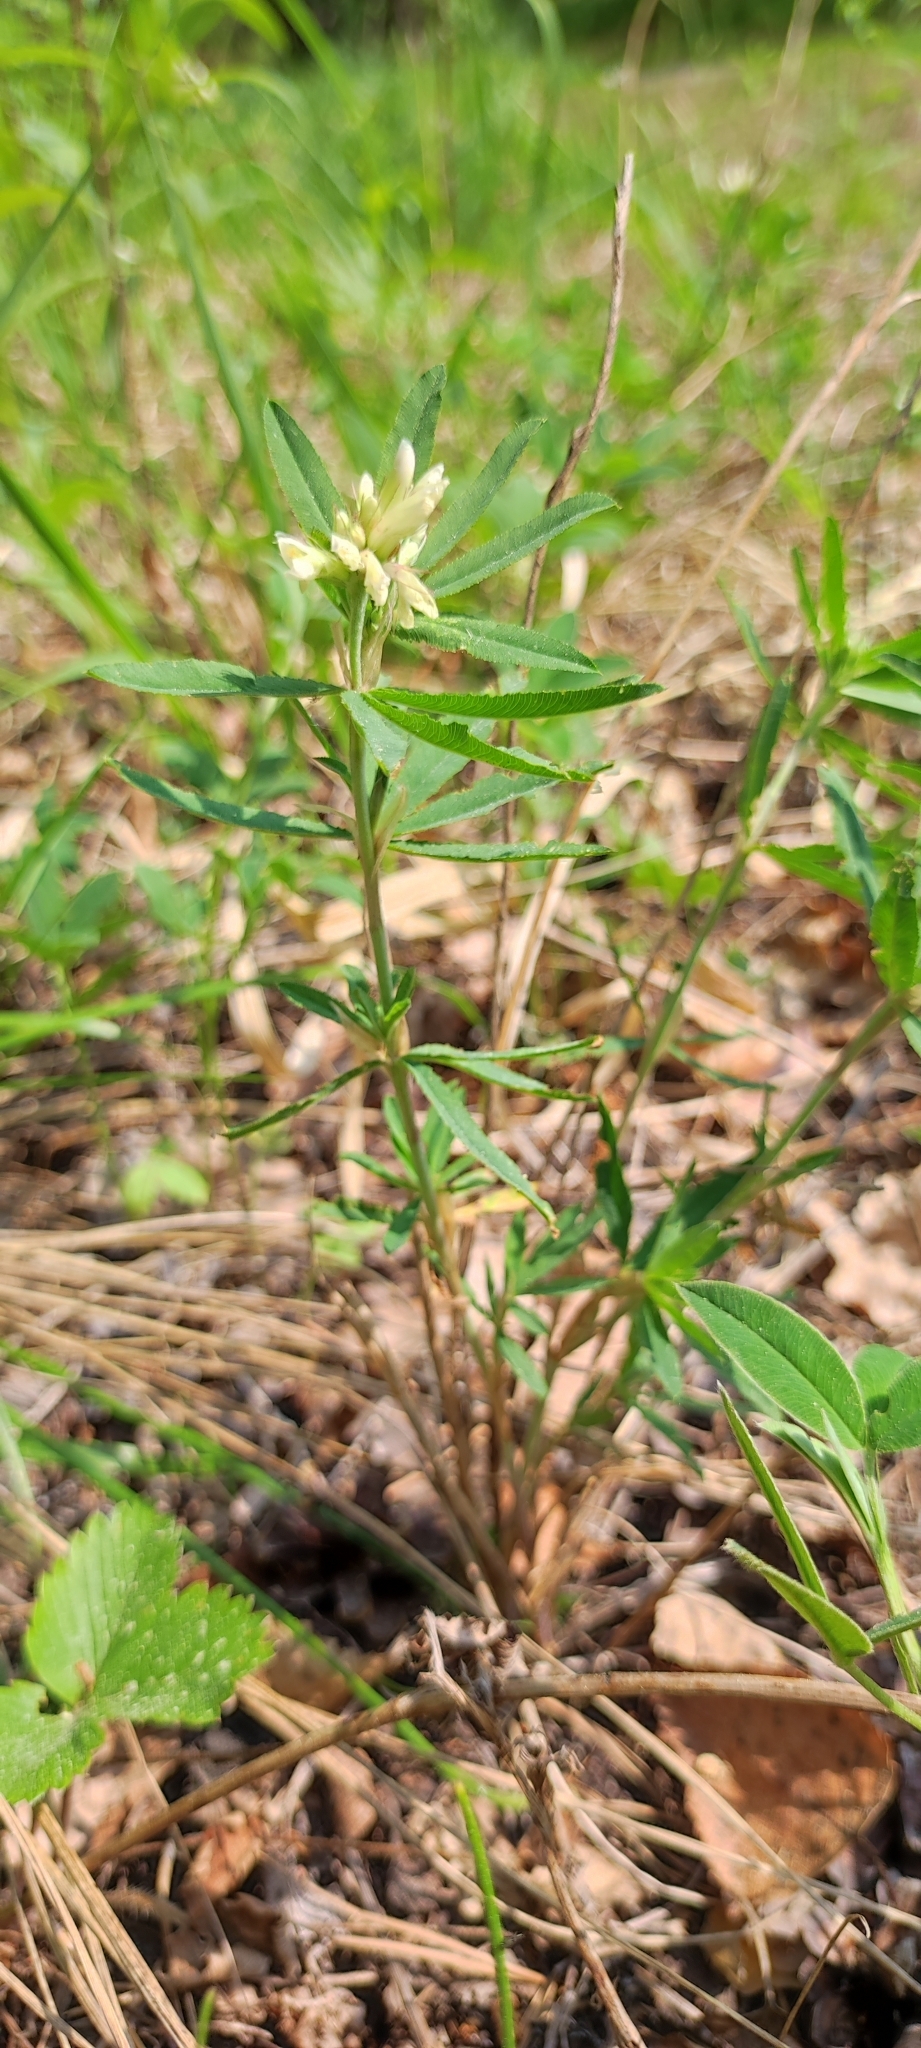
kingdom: Plantae
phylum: Tracheophyta
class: Magnoliopsida
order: Fabales
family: Fabaceae
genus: Trifolium
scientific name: Trifolium lupinaster
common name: Lupine clover
